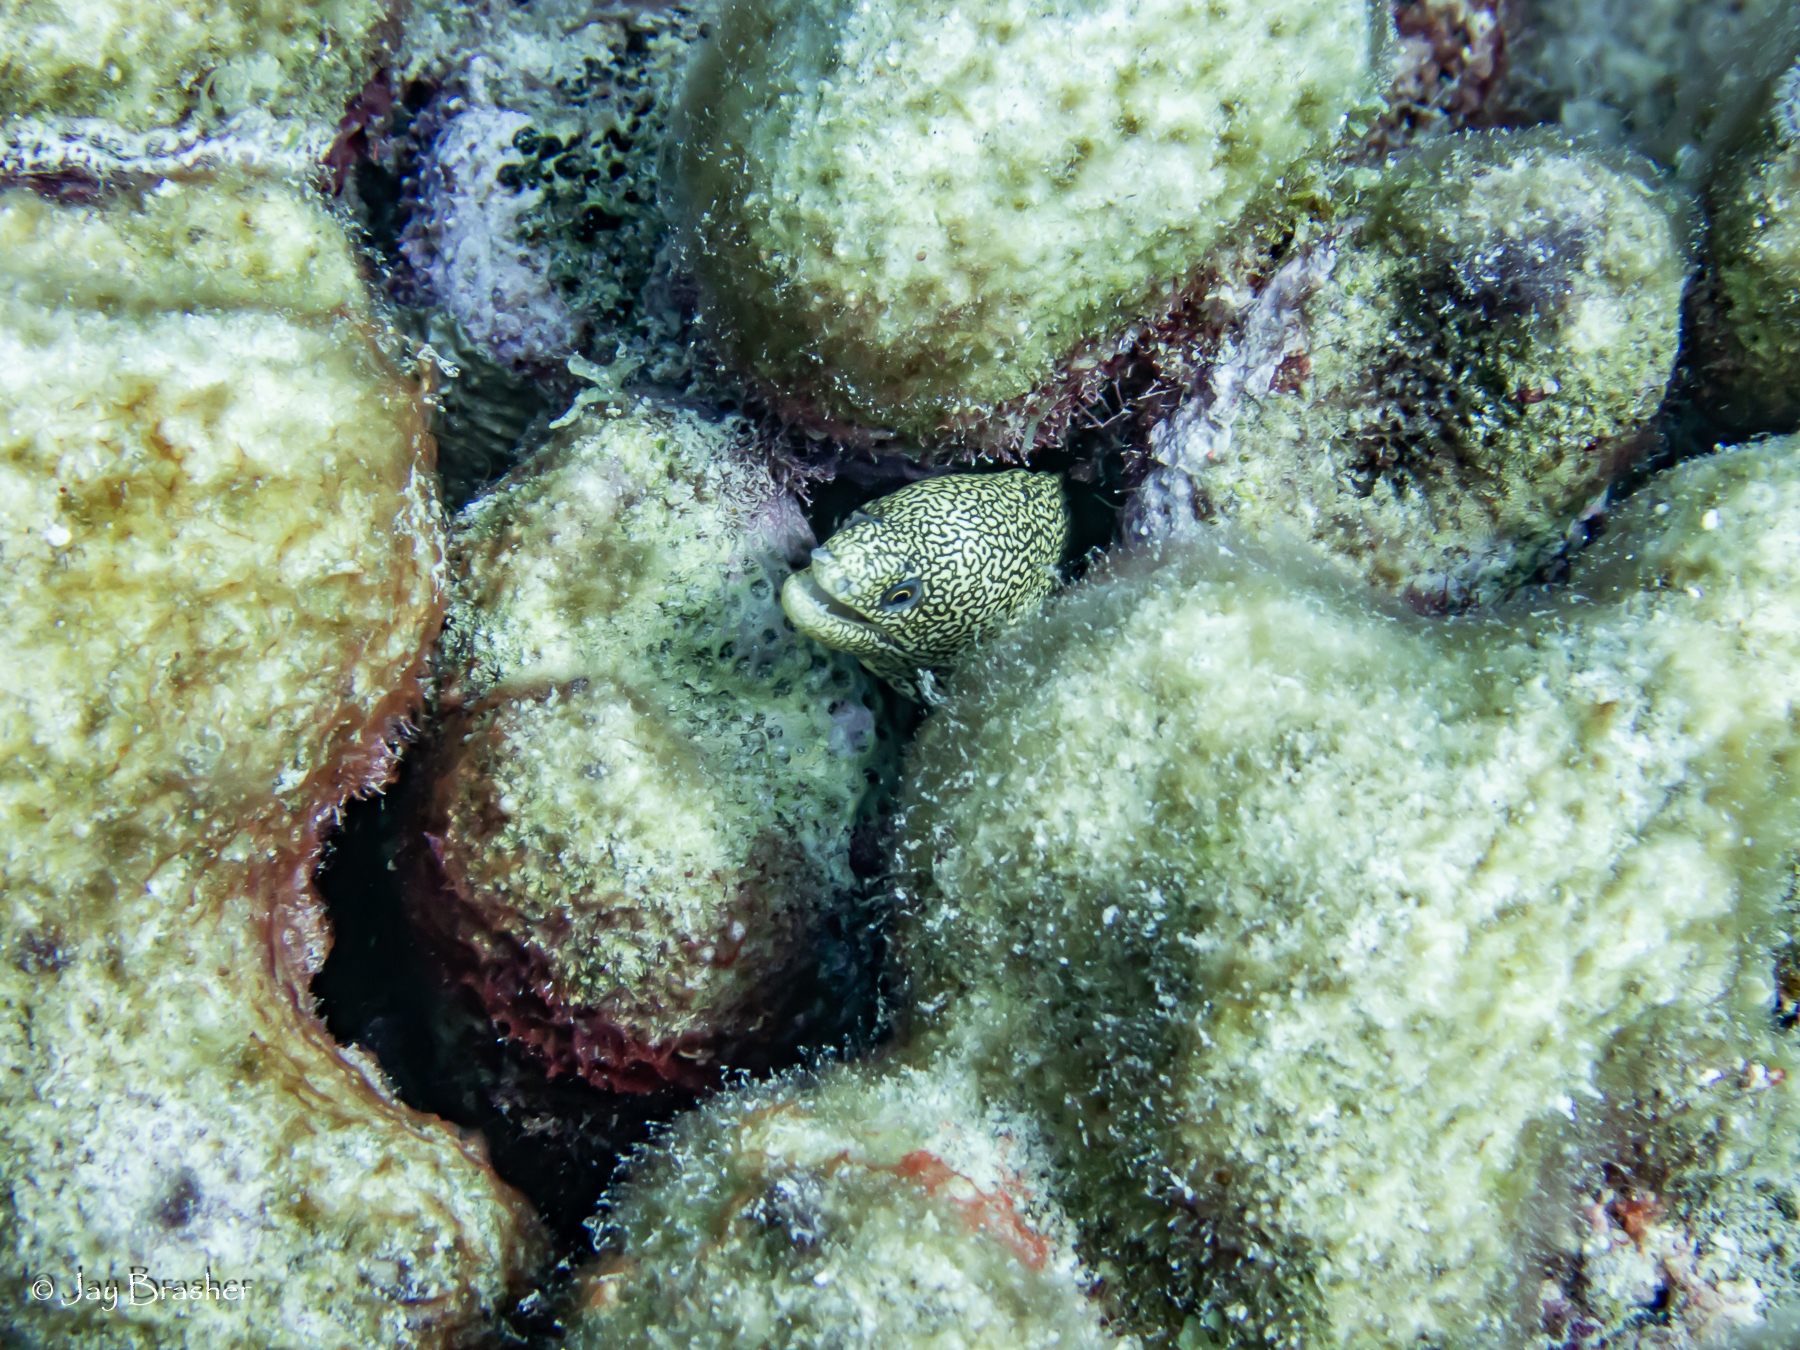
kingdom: Animalia
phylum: Chordata
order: Anguilliformes
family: Muraenidae
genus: Gymnothorax
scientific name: Gymnothorax miliaris
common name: Goldentail moray
